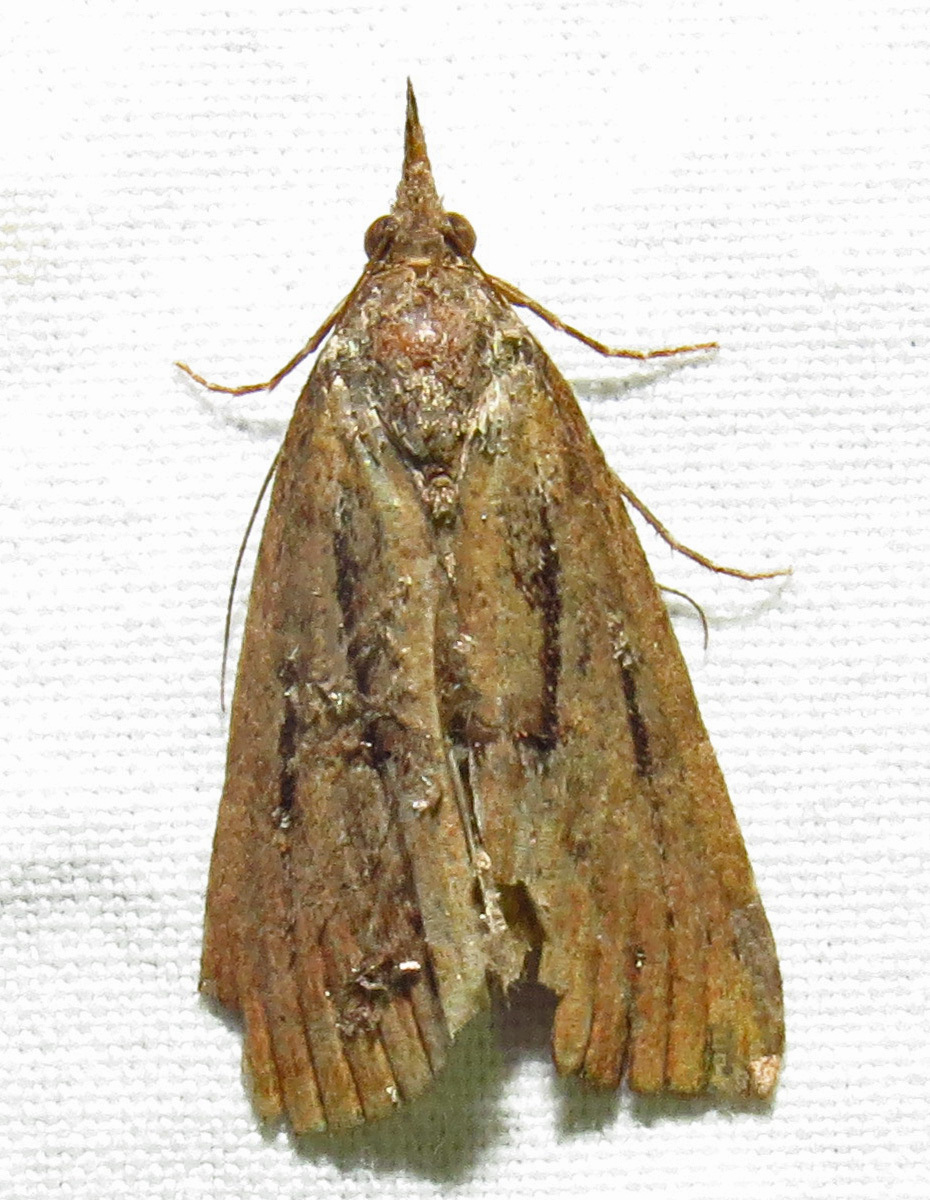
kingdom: Animalia
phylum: Arthropoda
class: Insecta
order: Lepidoptera
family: Erebidae
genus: Hypena
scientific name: Hypena scabra
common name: Green cloverworm
